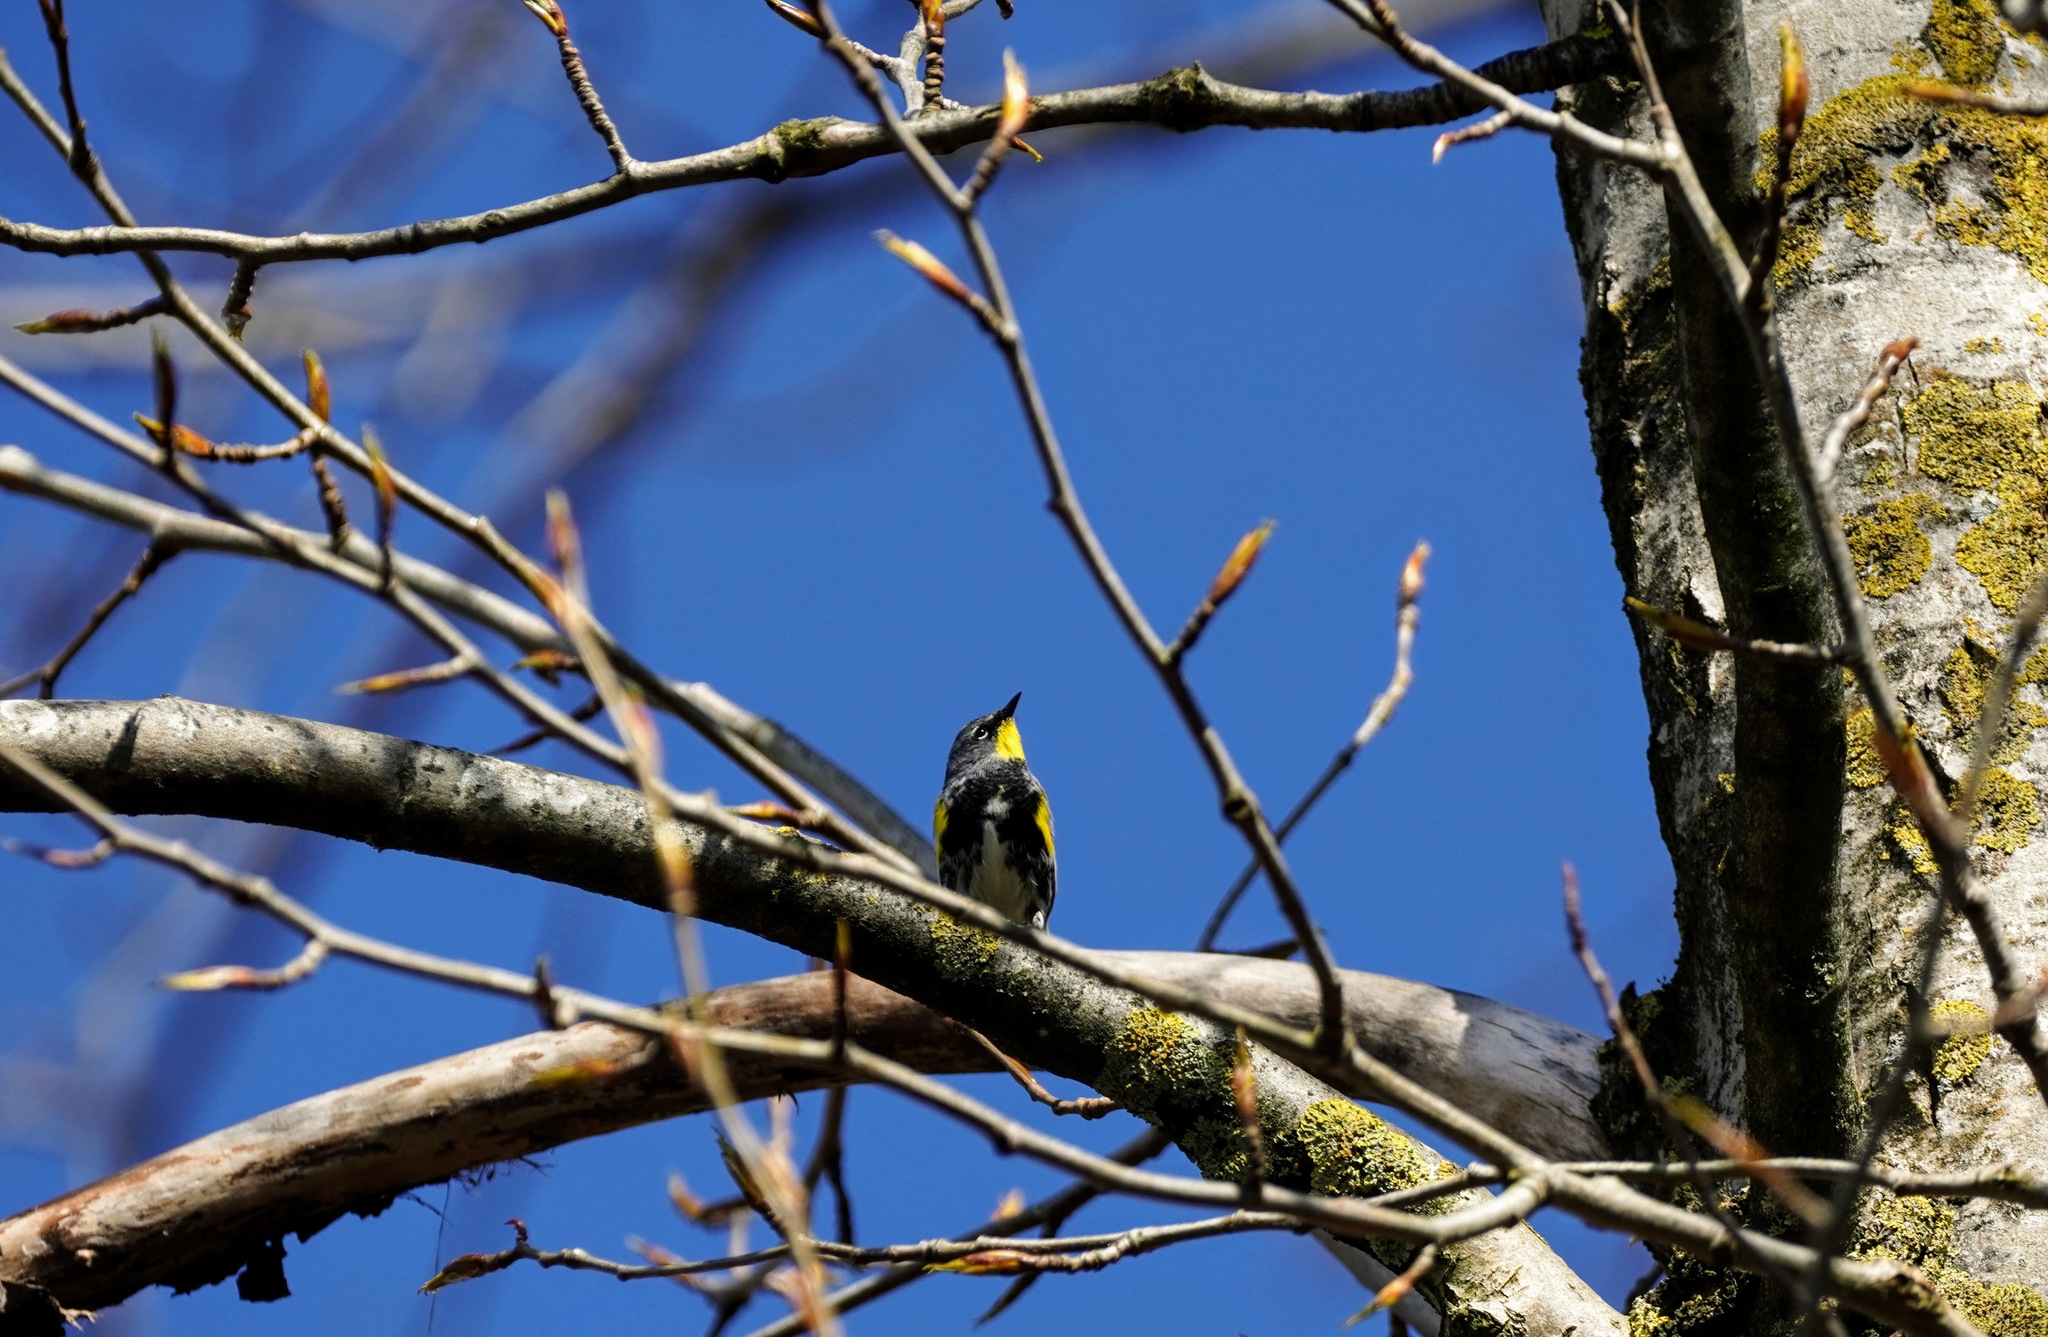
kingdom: Animalia
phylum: Chordata
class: Aves
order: Passeriformes
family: Parulidae
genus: Setophaga
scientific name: Setophaga coronata
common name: Myrtle warbler
